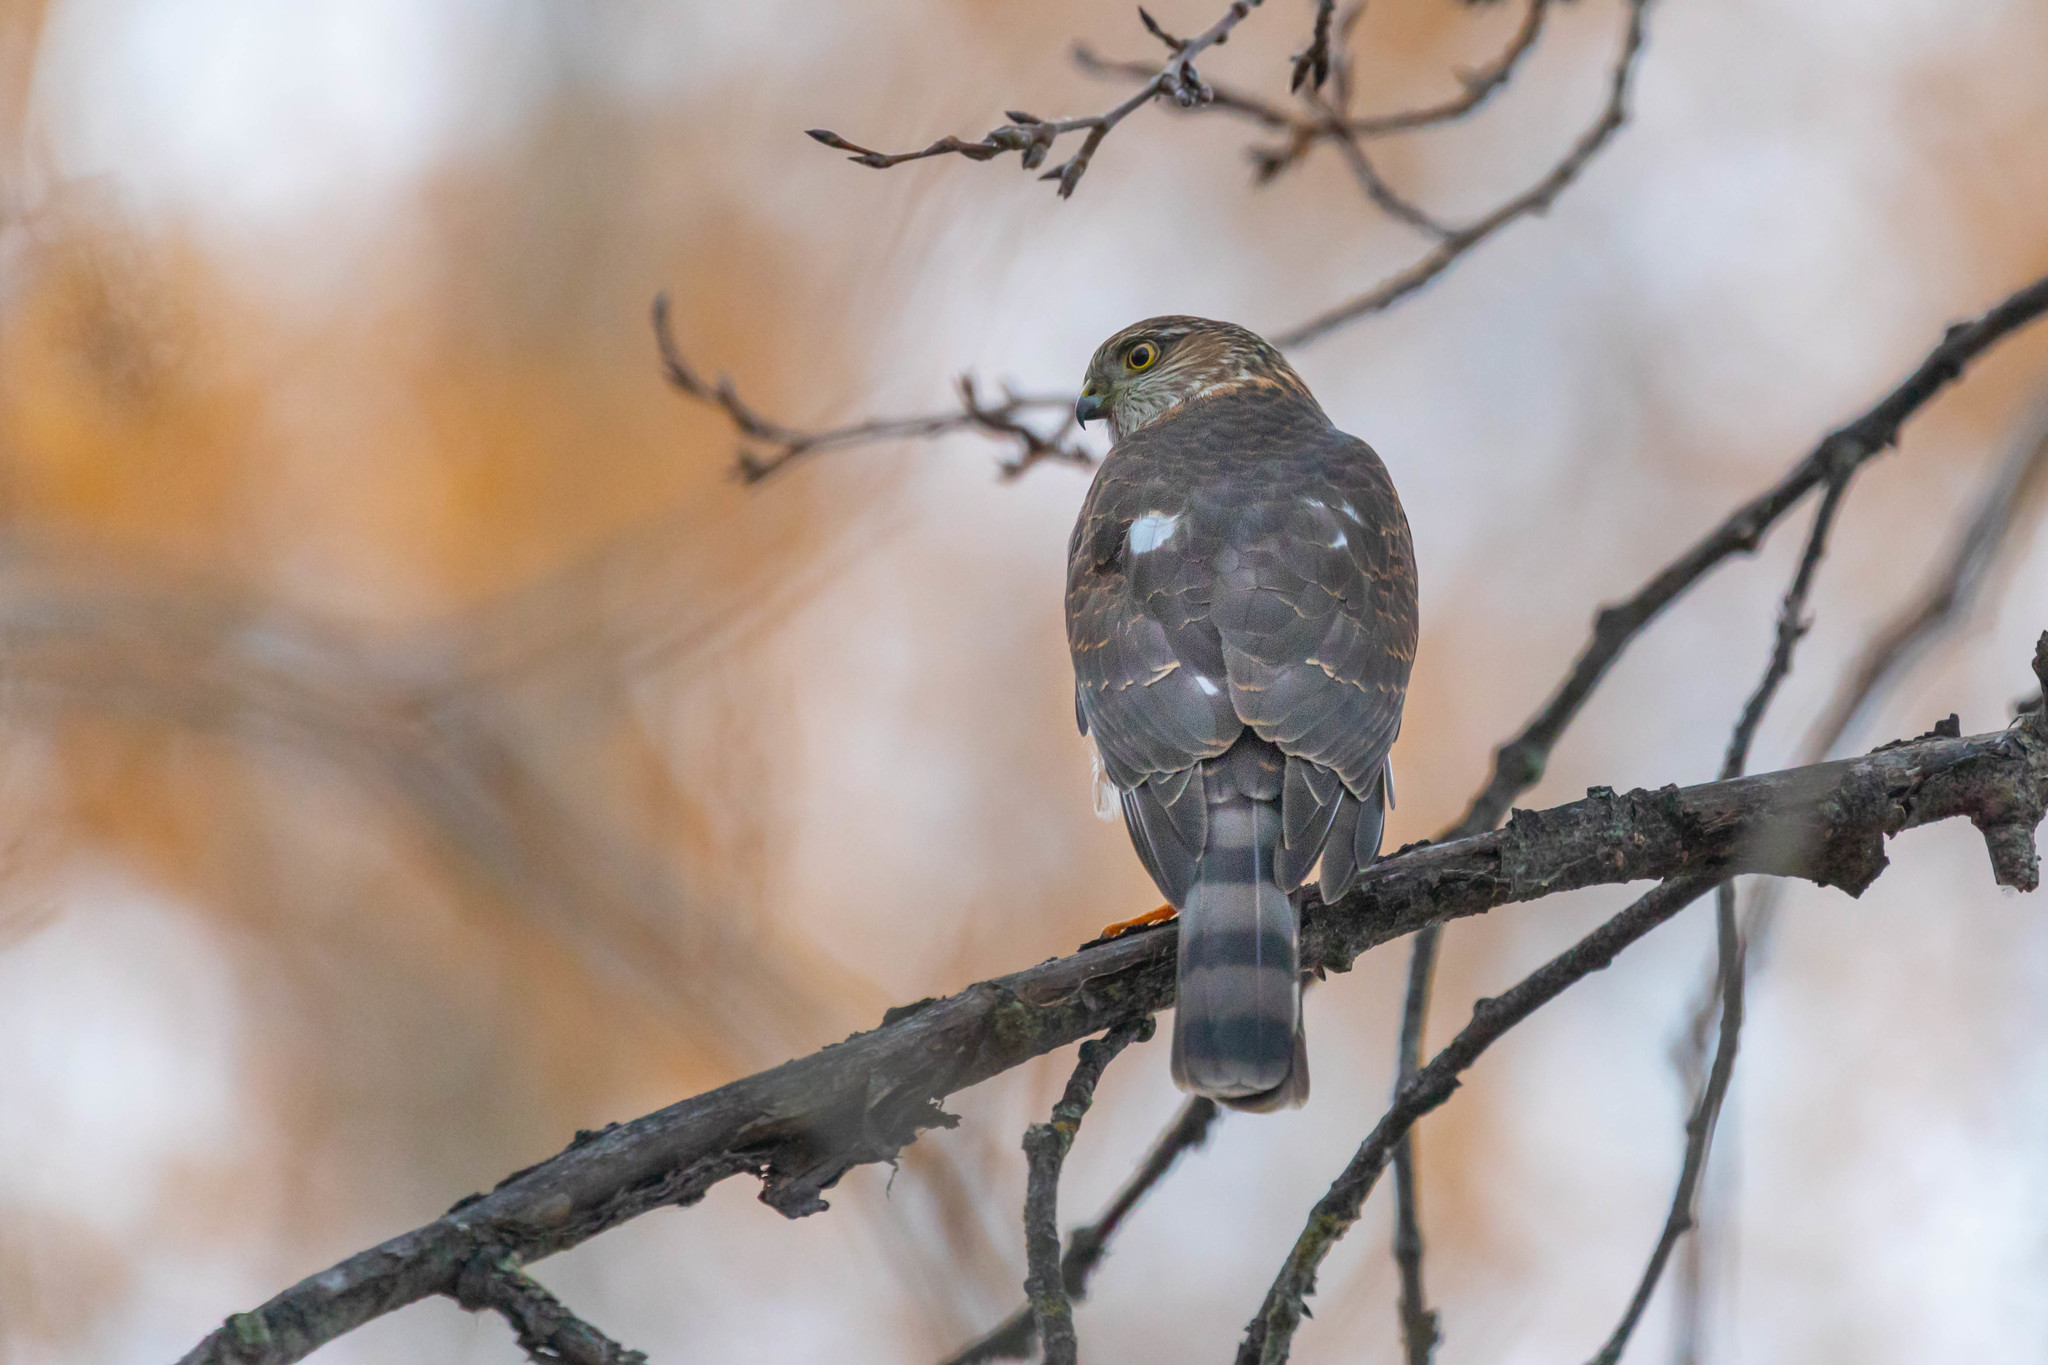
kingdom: Animalia
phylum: Chordata
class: Aves
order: Accipitriformes
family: Accipitridae
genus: Accipiter
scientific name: Accipiter striatus
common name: Sharp-shinned hawk
